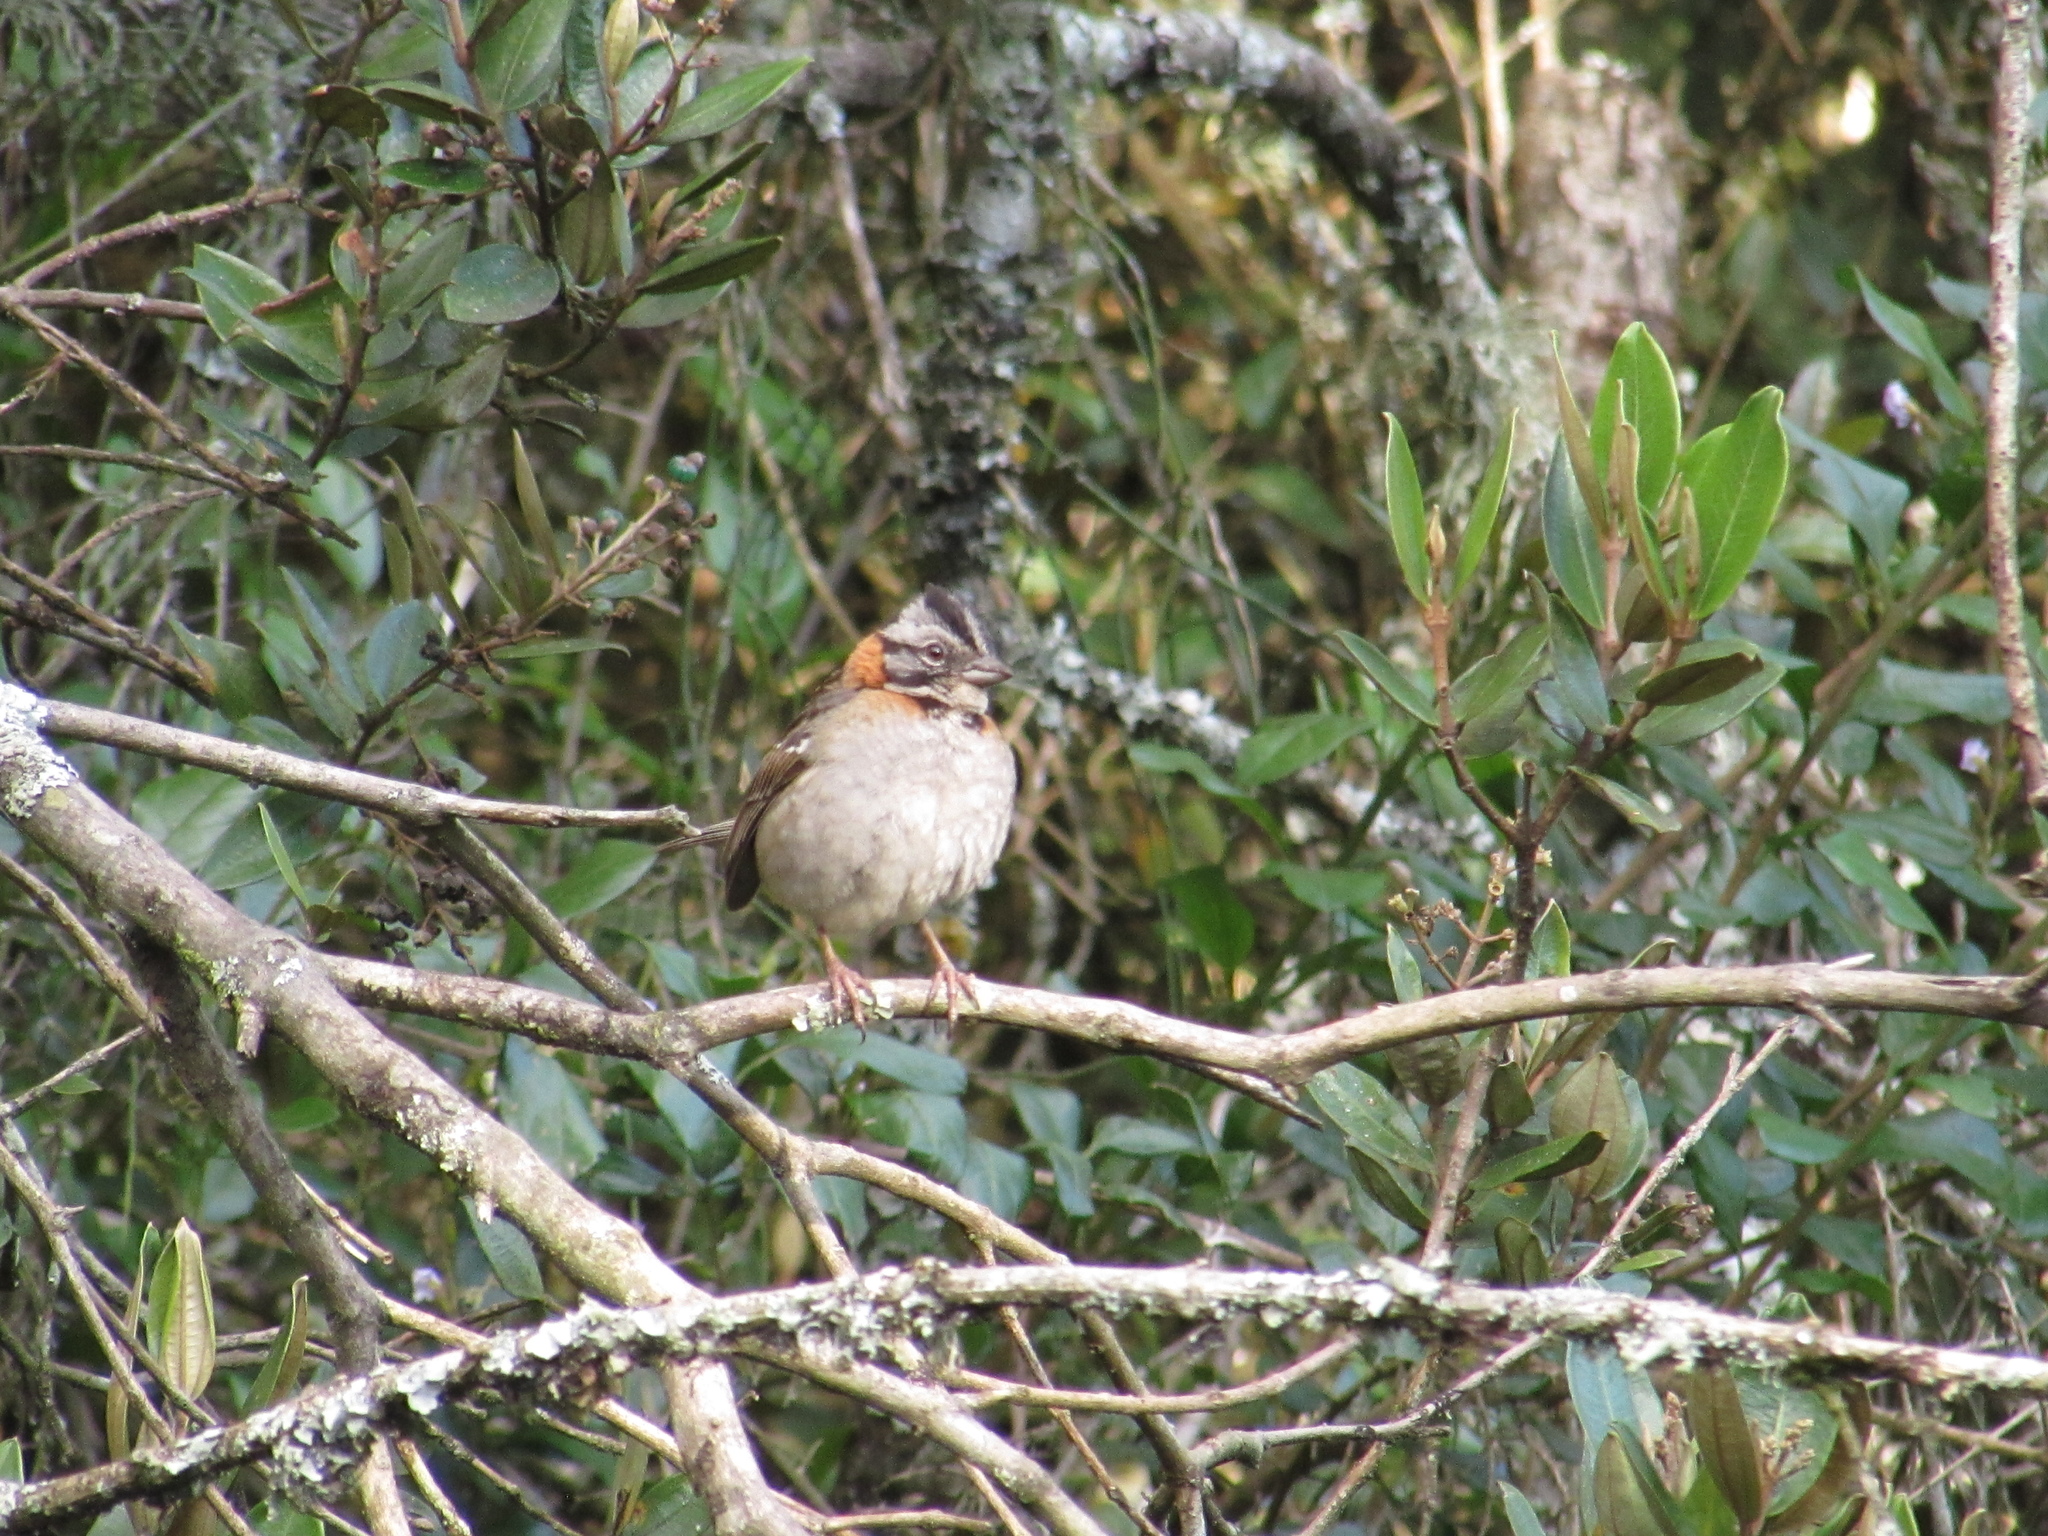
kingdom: Animalia
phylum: Chordata
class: Aves
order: Passeriformes
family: Passerellidae
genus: Zonotrichia
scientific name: Zonotrichia capensis
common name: Rufous-collared sparrow
